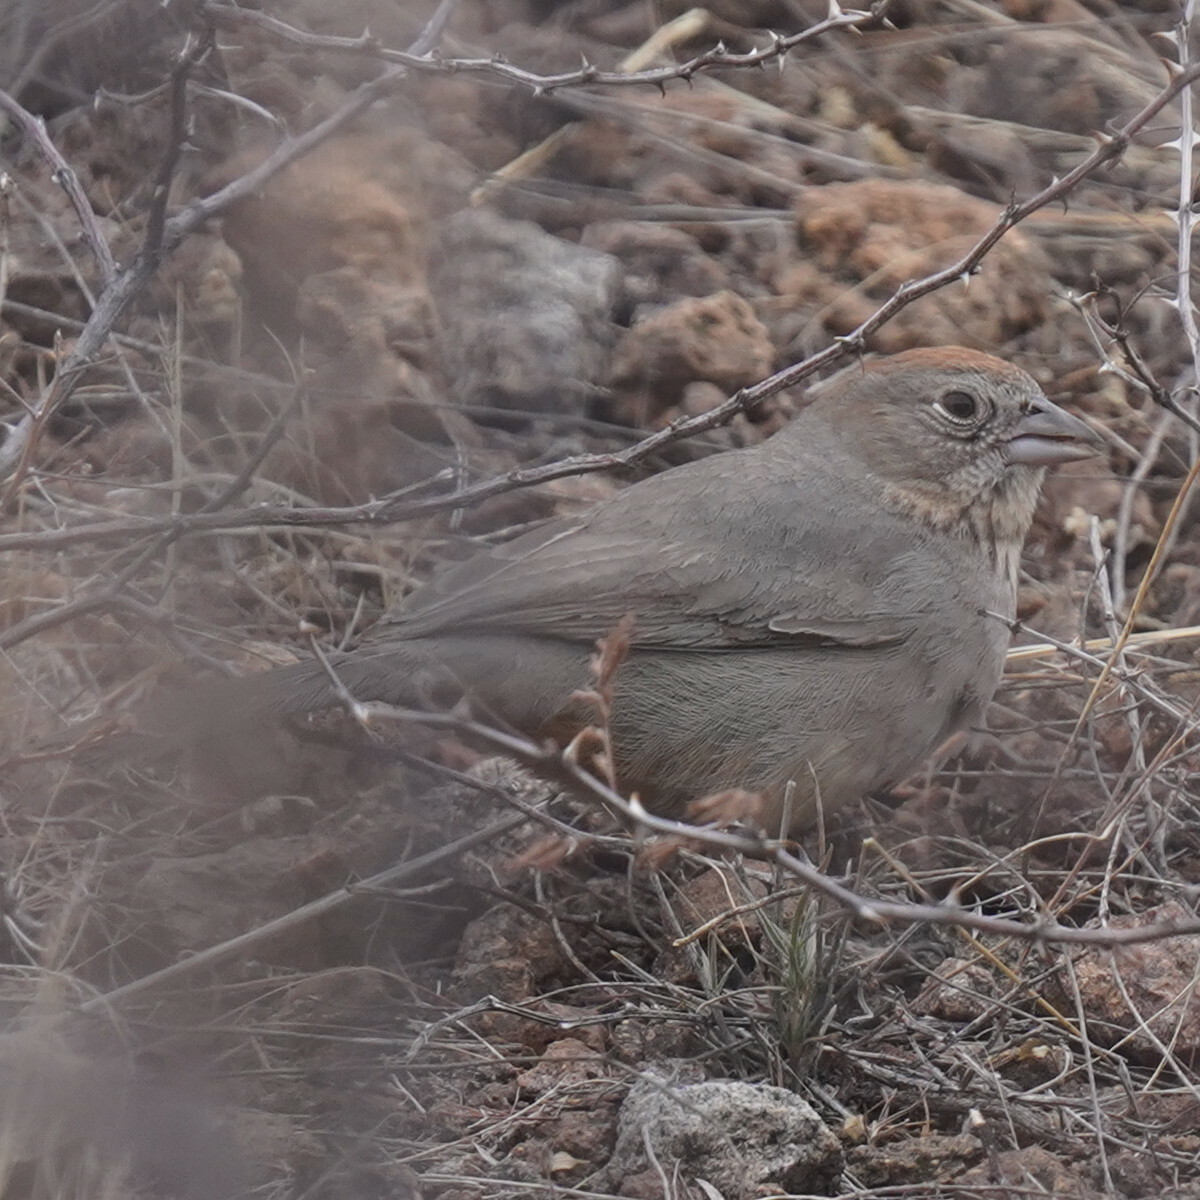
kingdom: Animalia
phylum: Chordata
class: Aves
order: Passeriformes
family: Passerellidae
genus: Melozone
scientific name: Melozone fusca
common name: Canyon towhee
